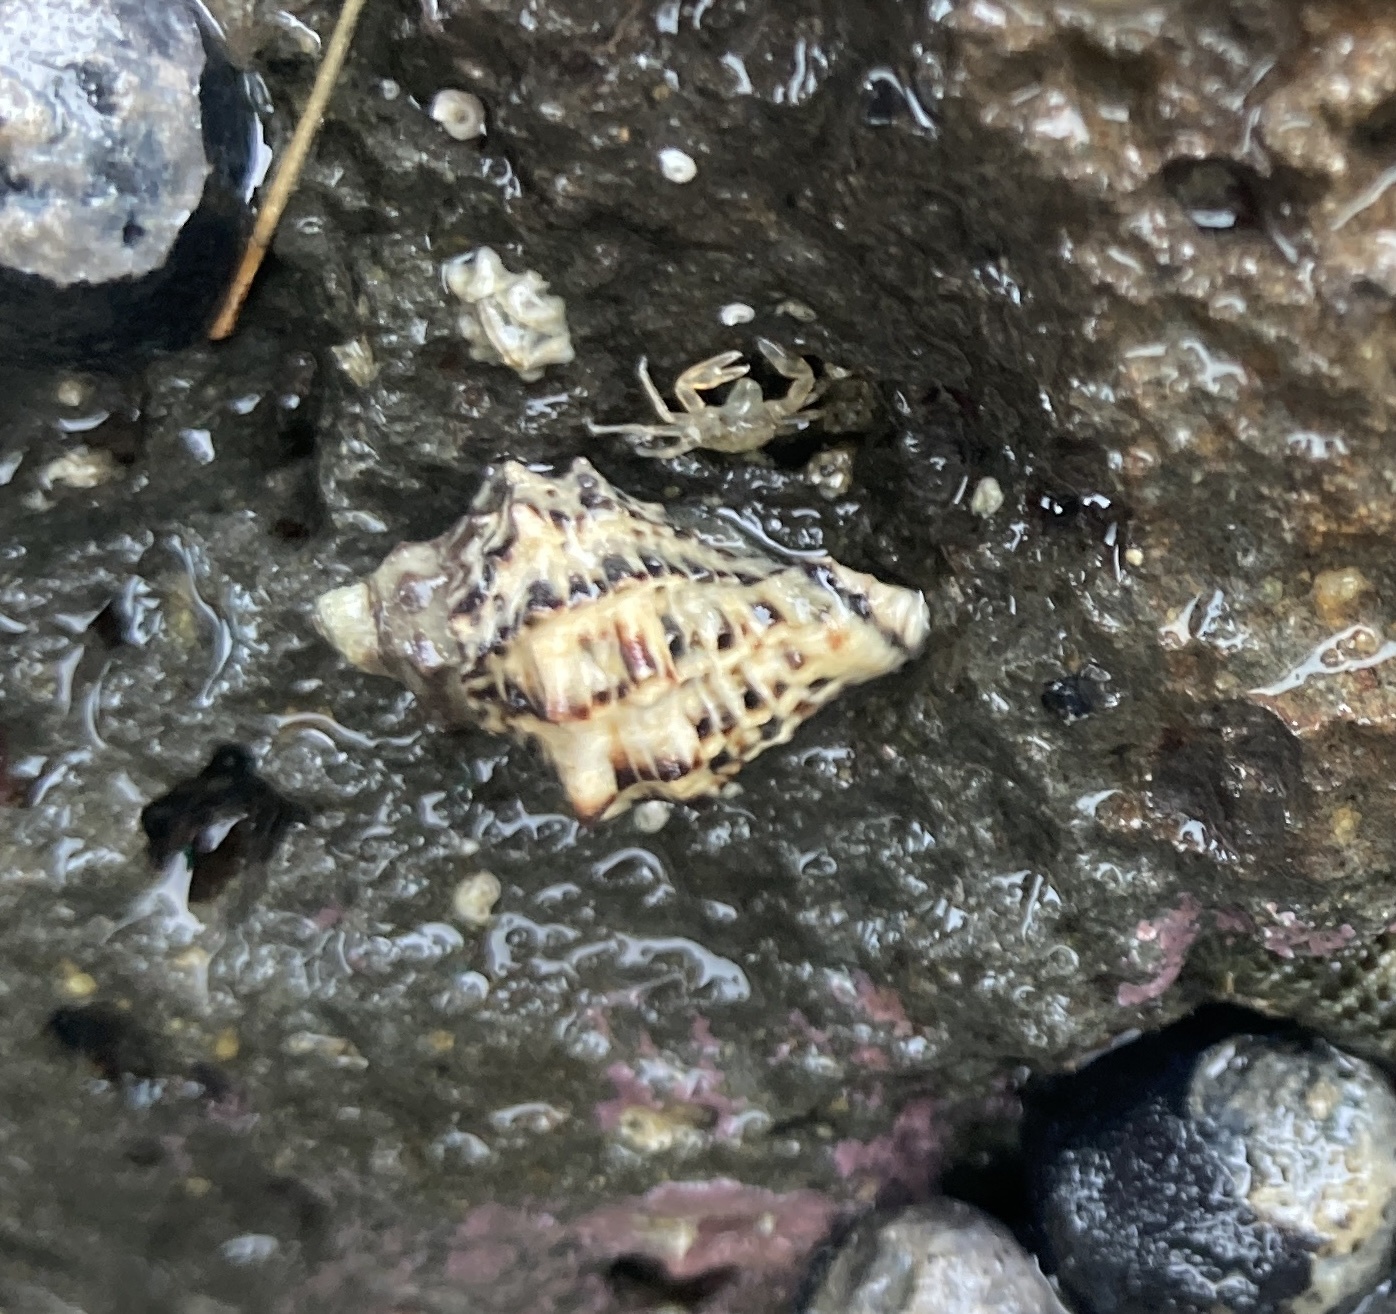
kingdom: Animalia
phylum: Mollusca
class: Gastropoda
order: Neogastropoda
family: Muricidae
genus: Haustrum
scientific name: Haustrum scobina
